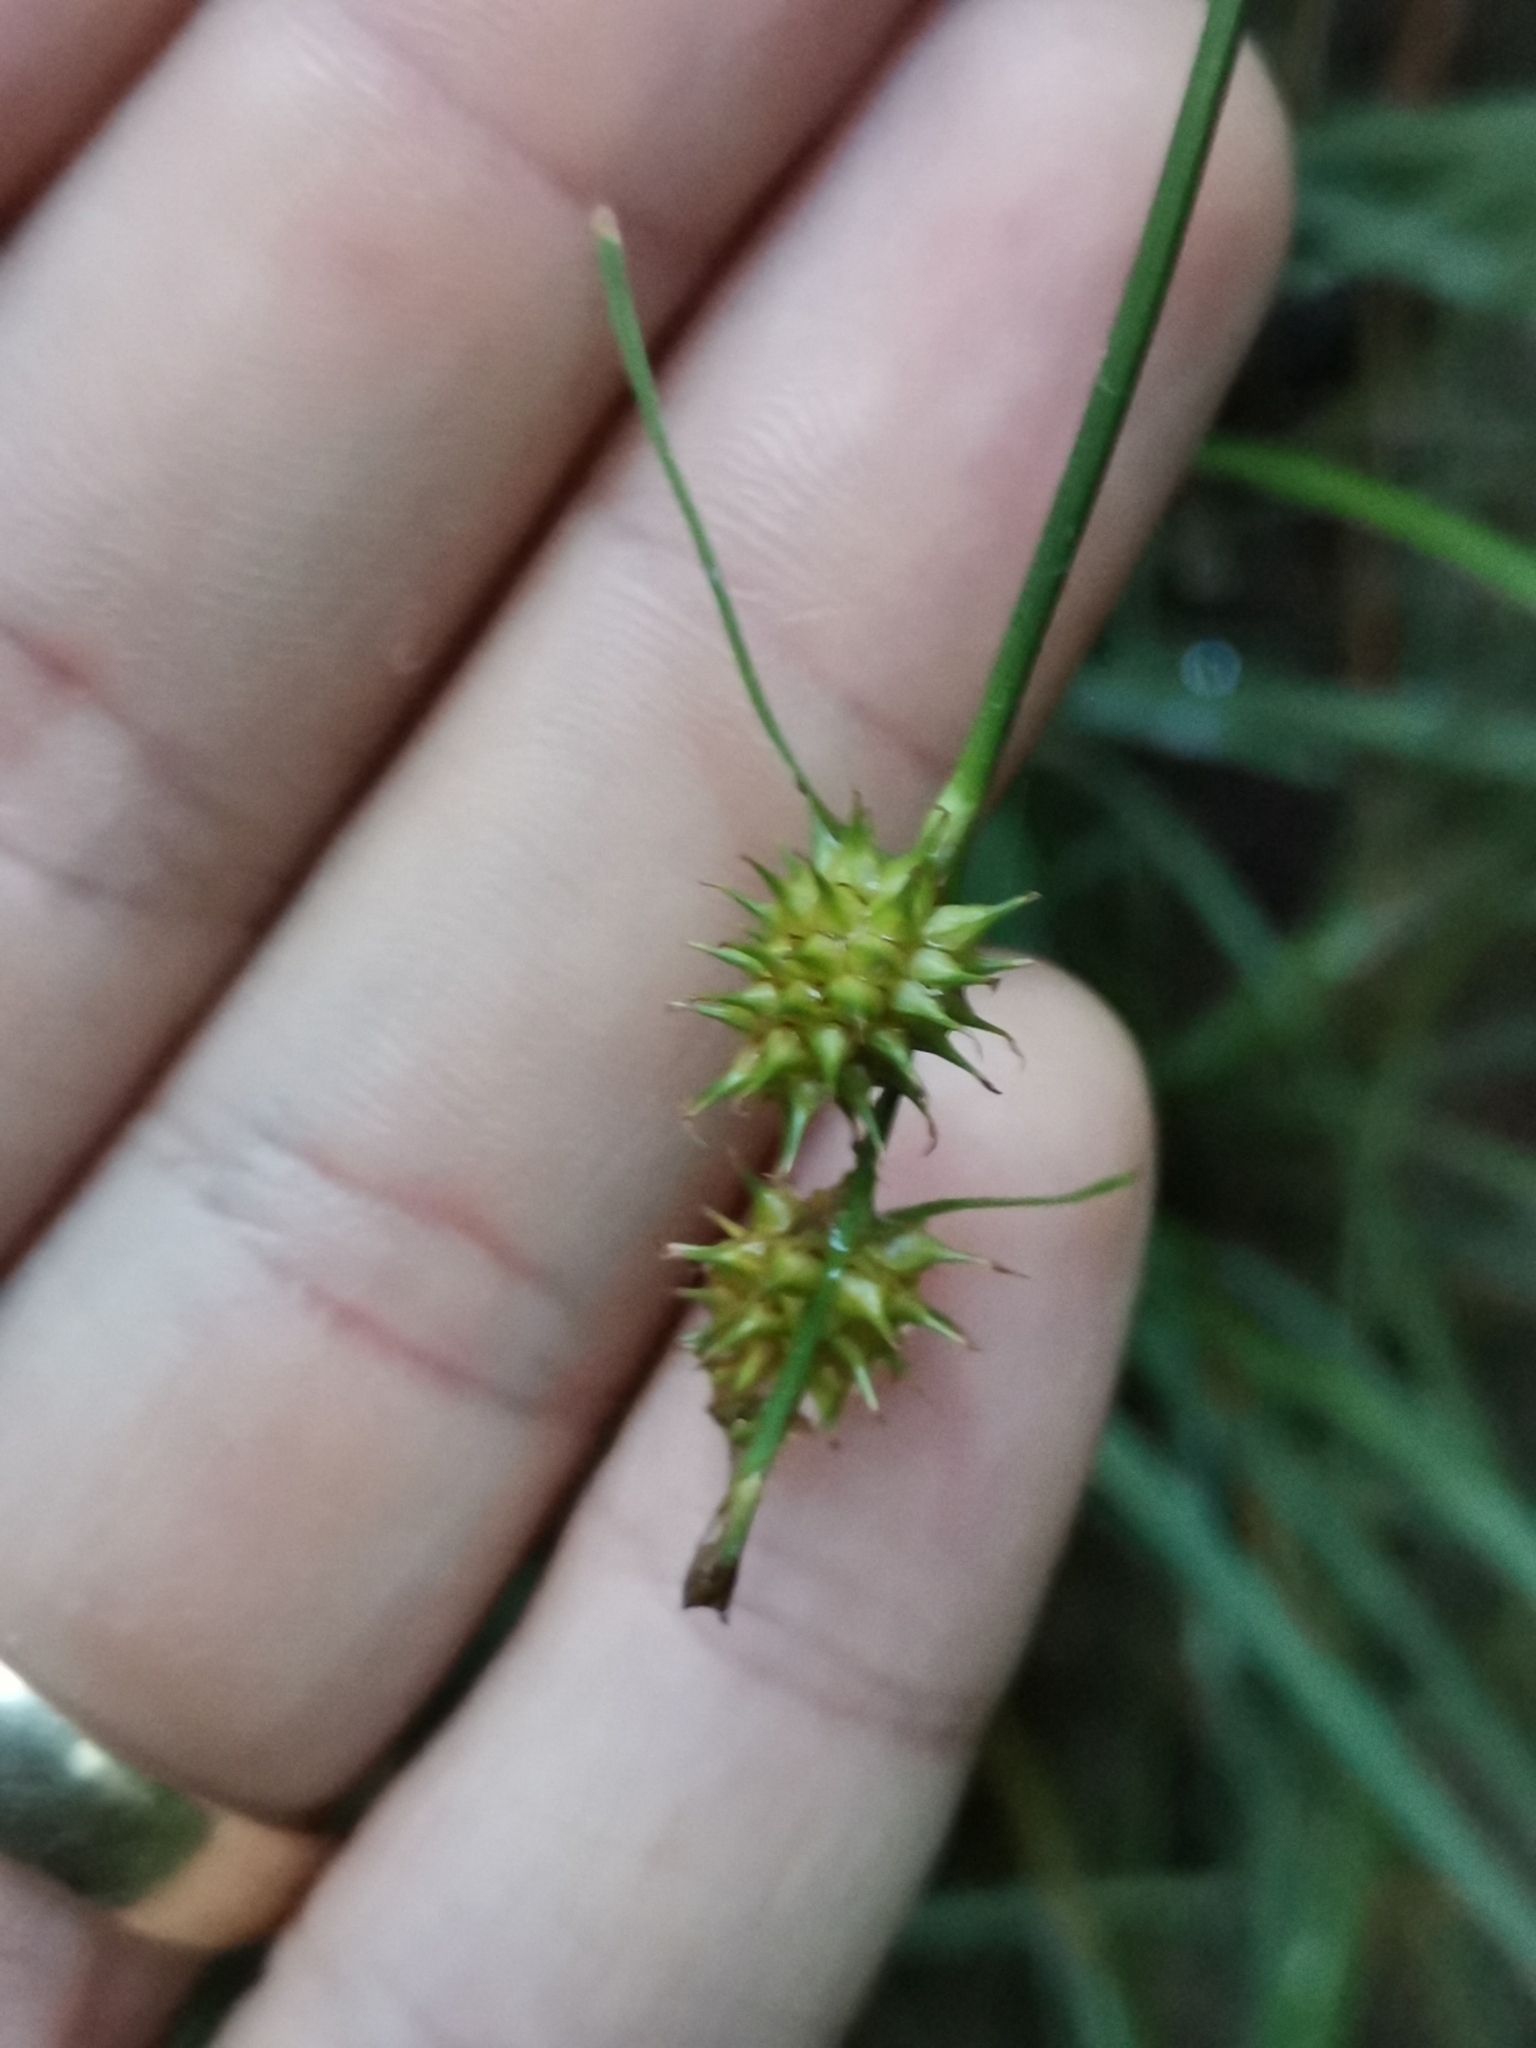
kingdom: Plantae
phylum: Tracheophyta
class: Liliopsida
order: Poales
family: Cyperaceae
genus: Carex
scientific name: Carex lepidocarpa
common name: Long-stalked yellow-sedge
